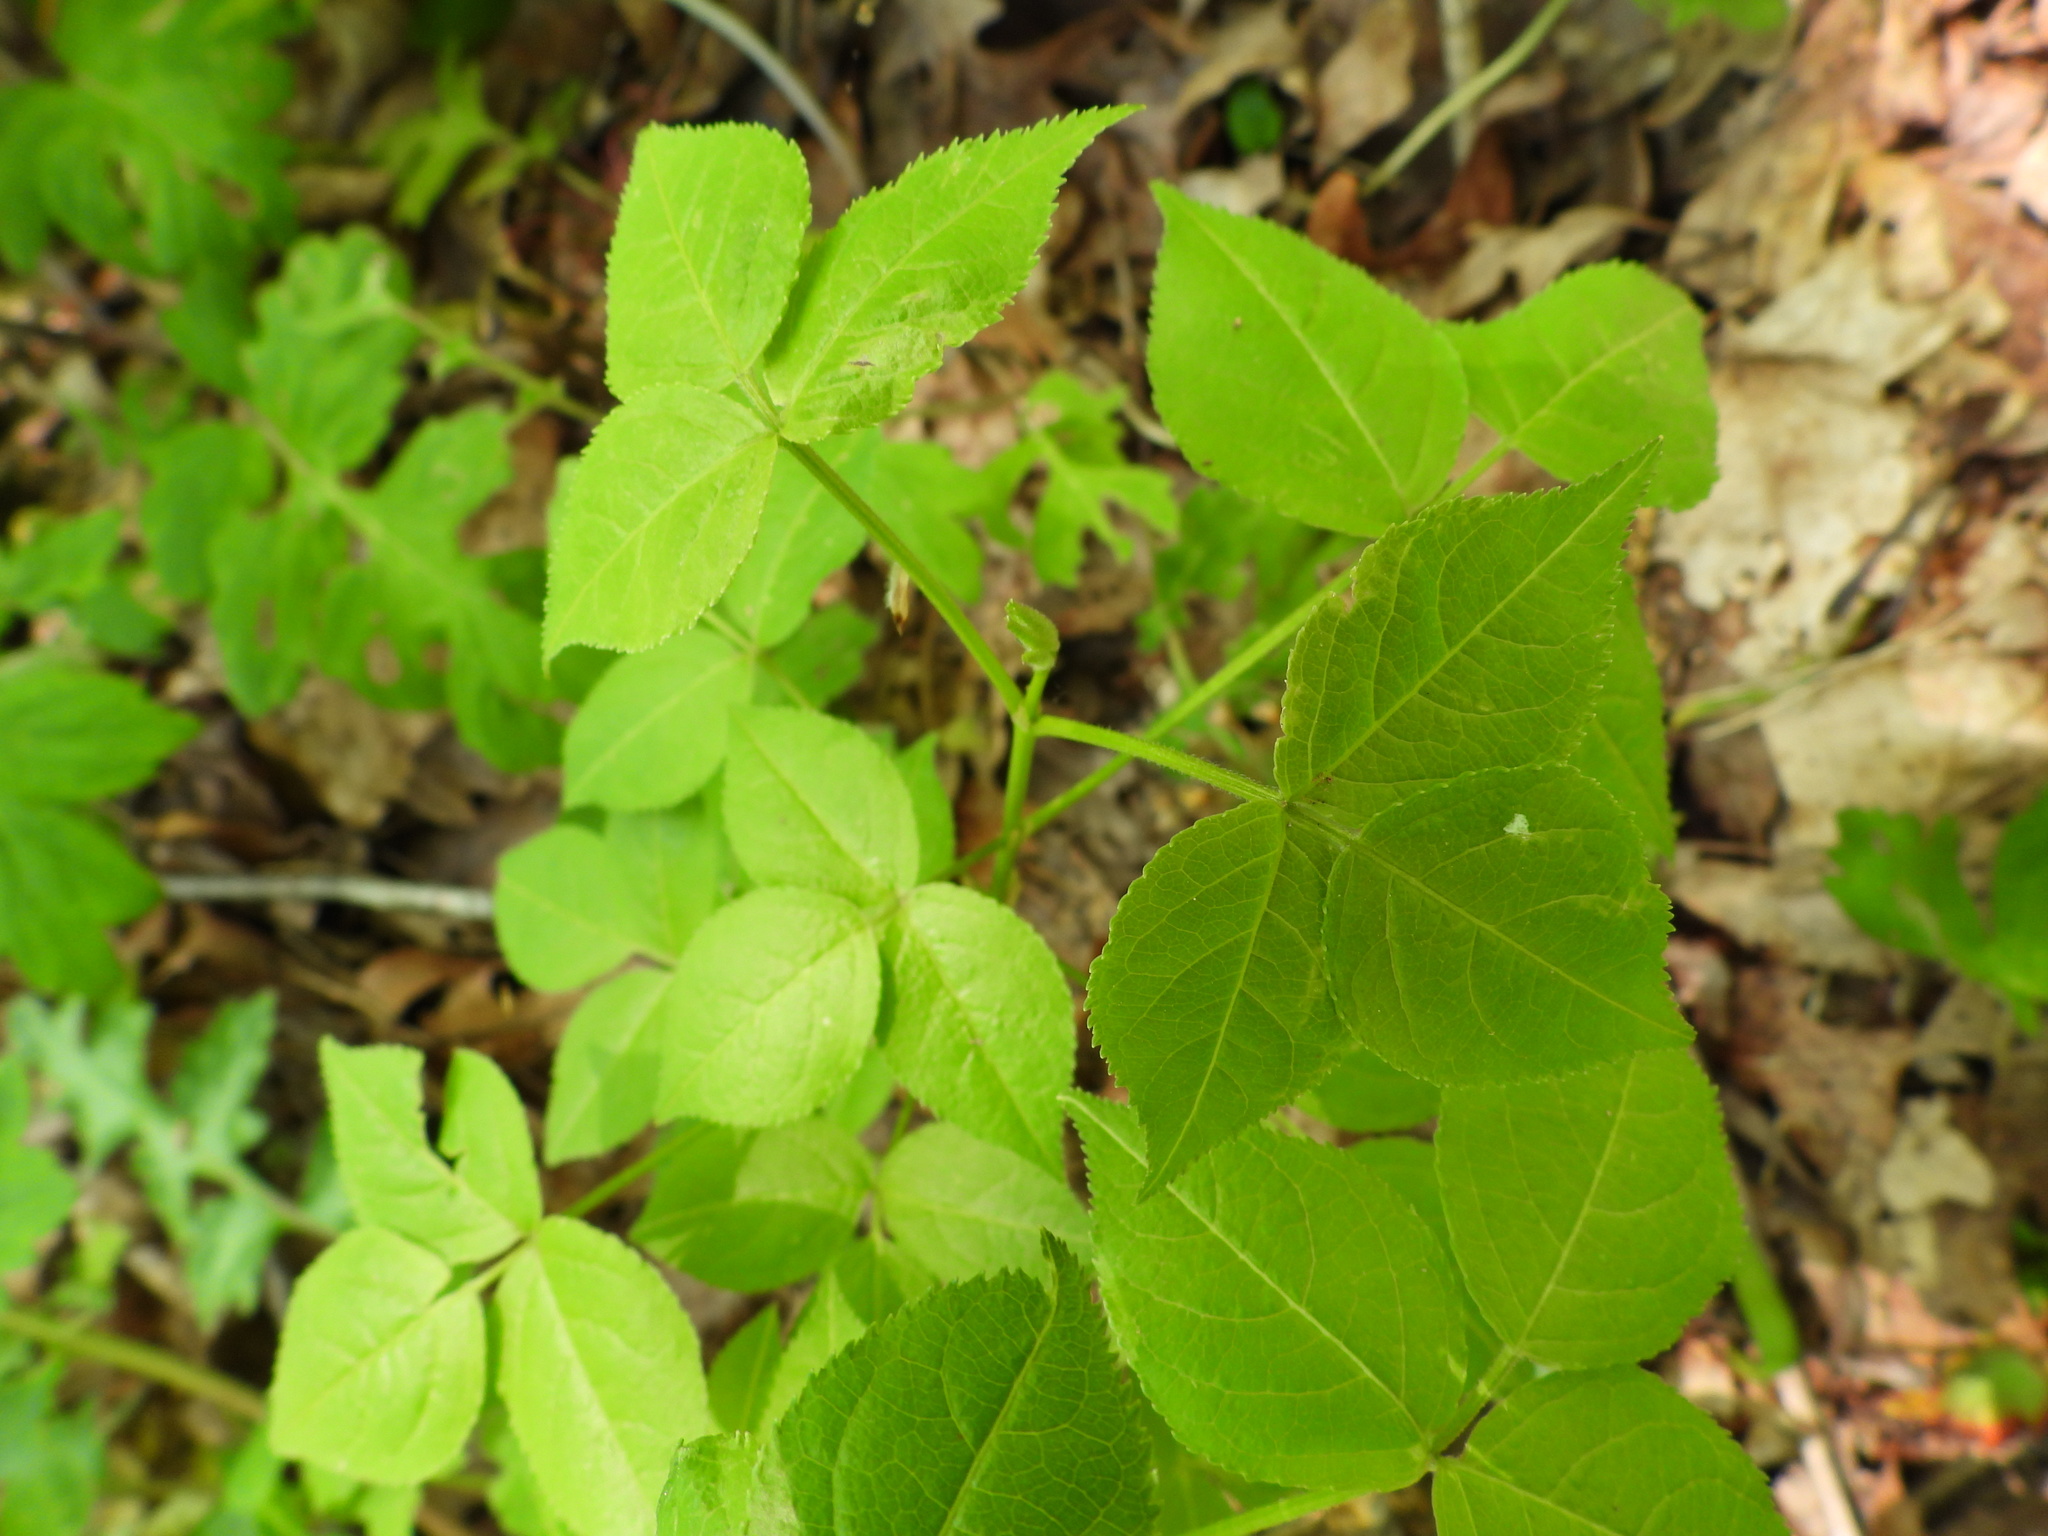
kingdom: Plantae
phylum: Tracheophyta
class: Magnoliopsida
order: Crossosomatales
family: Staphyleaceae
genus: Staphylea
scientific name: Staphylea trifolia
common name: American bladdernut
